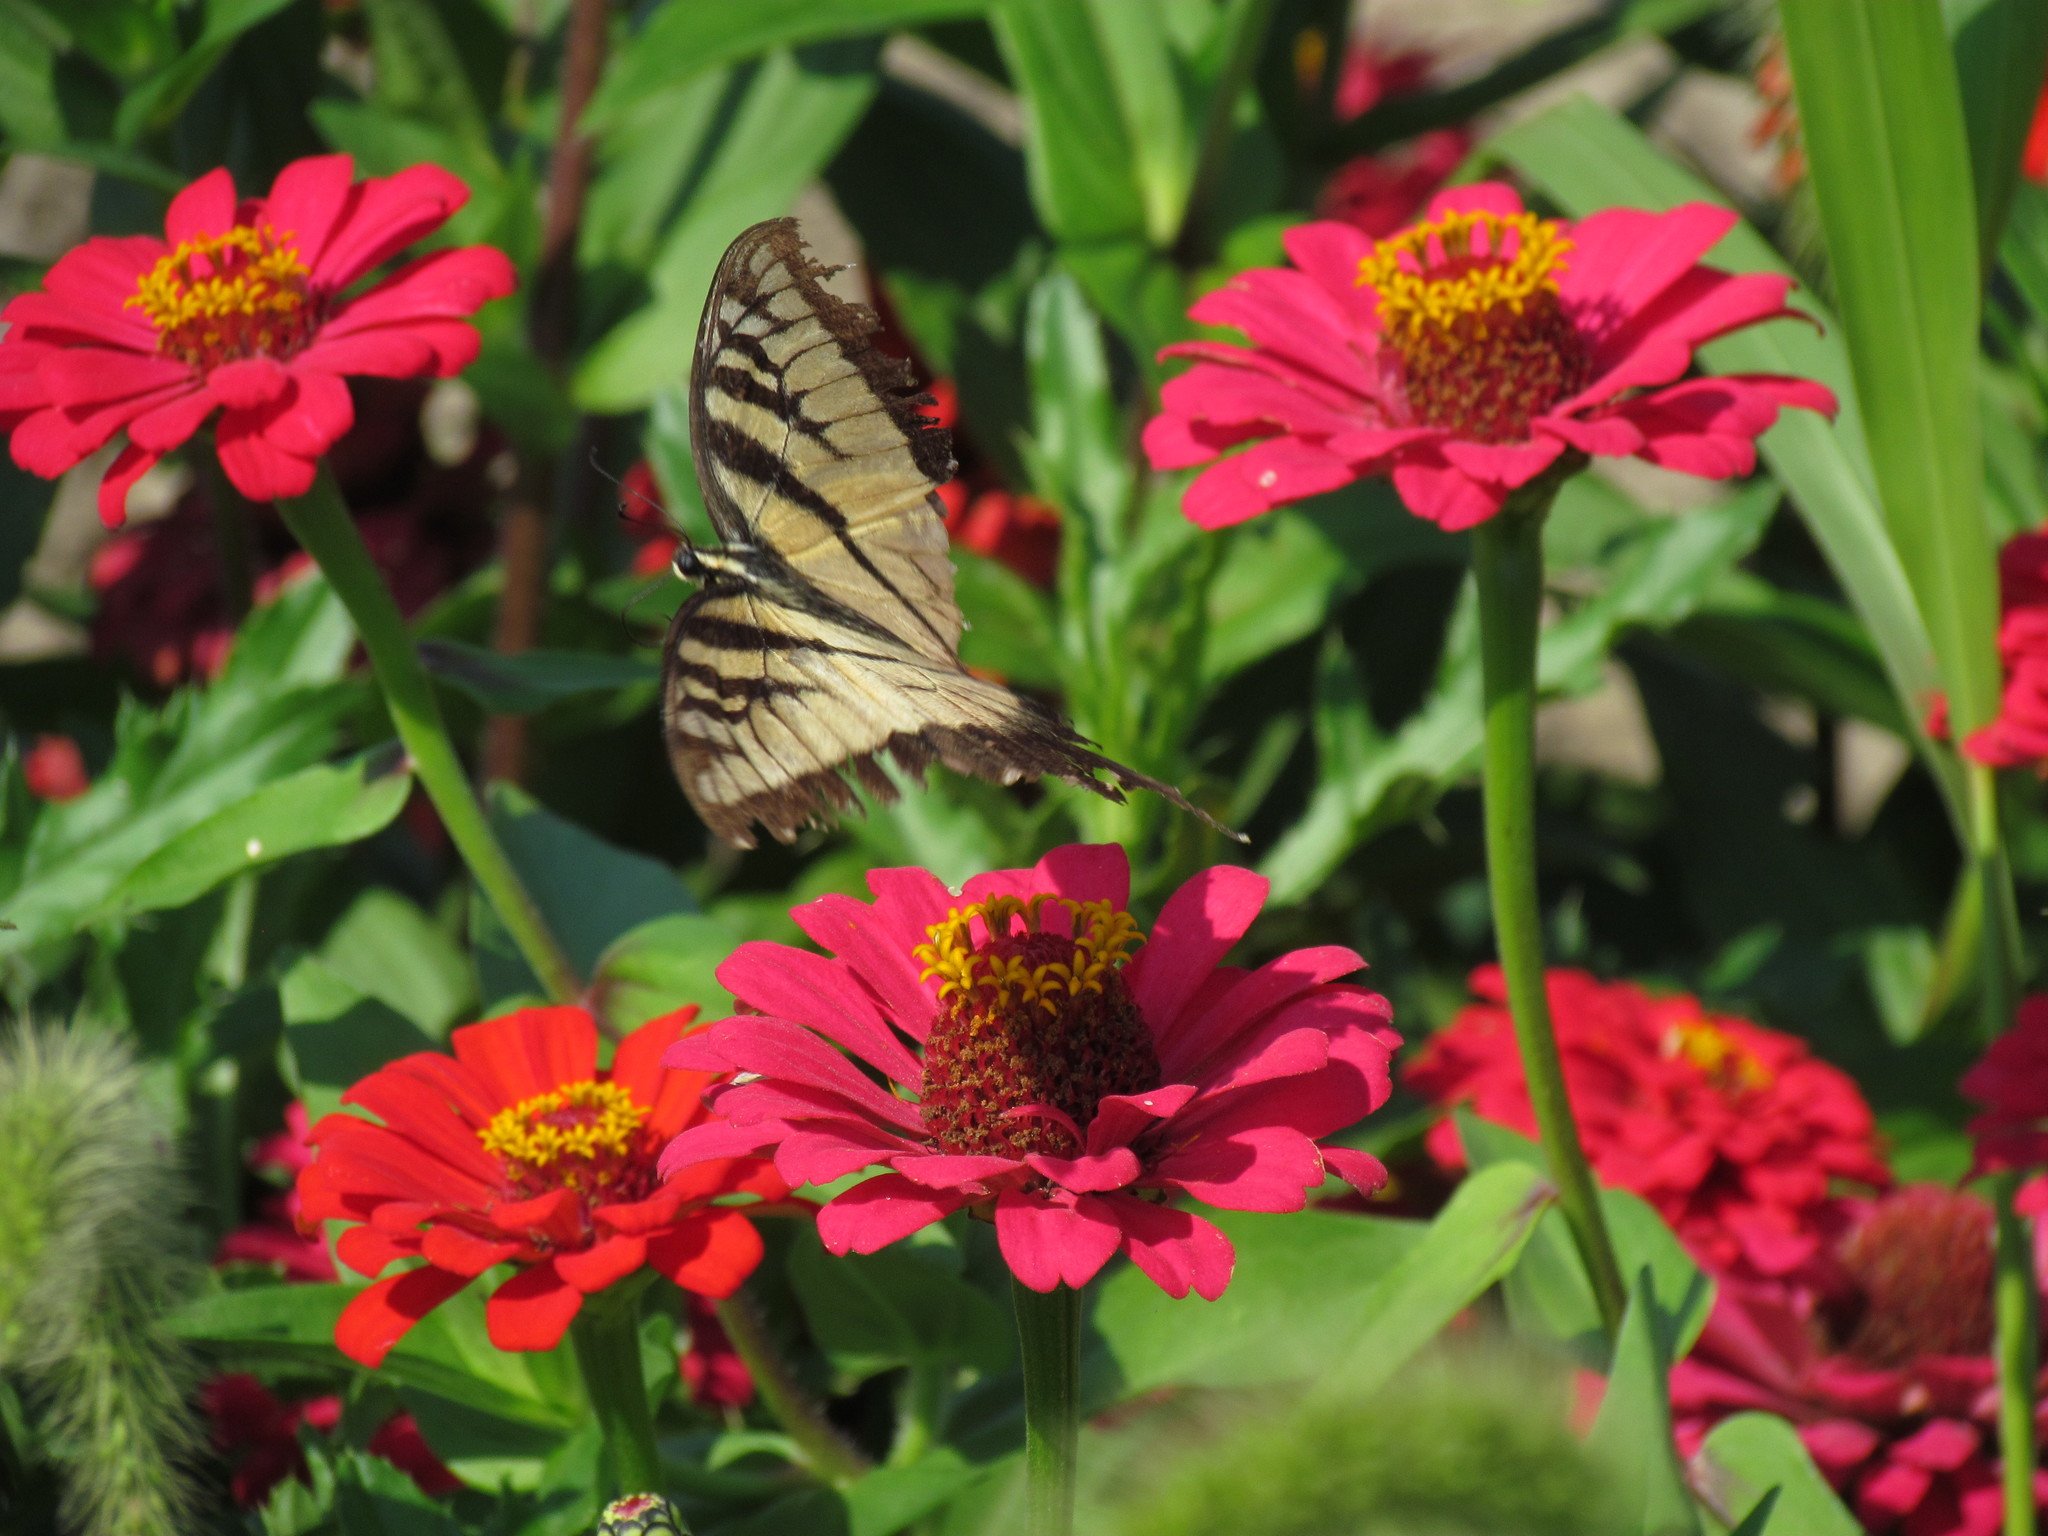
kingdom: Animalia
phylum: Arthropoda
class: Insecta
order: Lepidoptera
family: Papilionidae
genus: Papilio
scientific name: Papilio glaucus
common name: Tiger swallowtail
